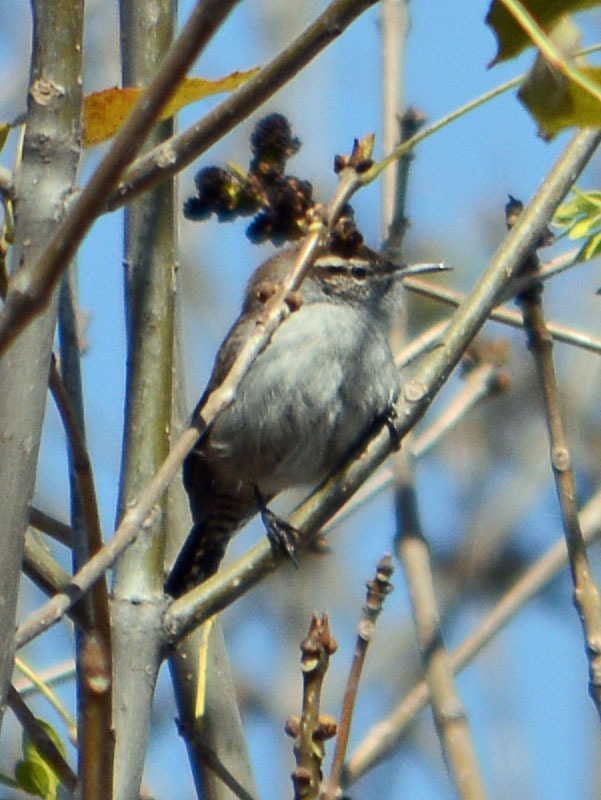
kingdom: Animalia
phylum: Chordata
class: Aves
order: Passeriformes
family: Troglodytidae
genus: Thryomanes
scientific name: Thryomanes bewickii
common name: Bewick's wren
